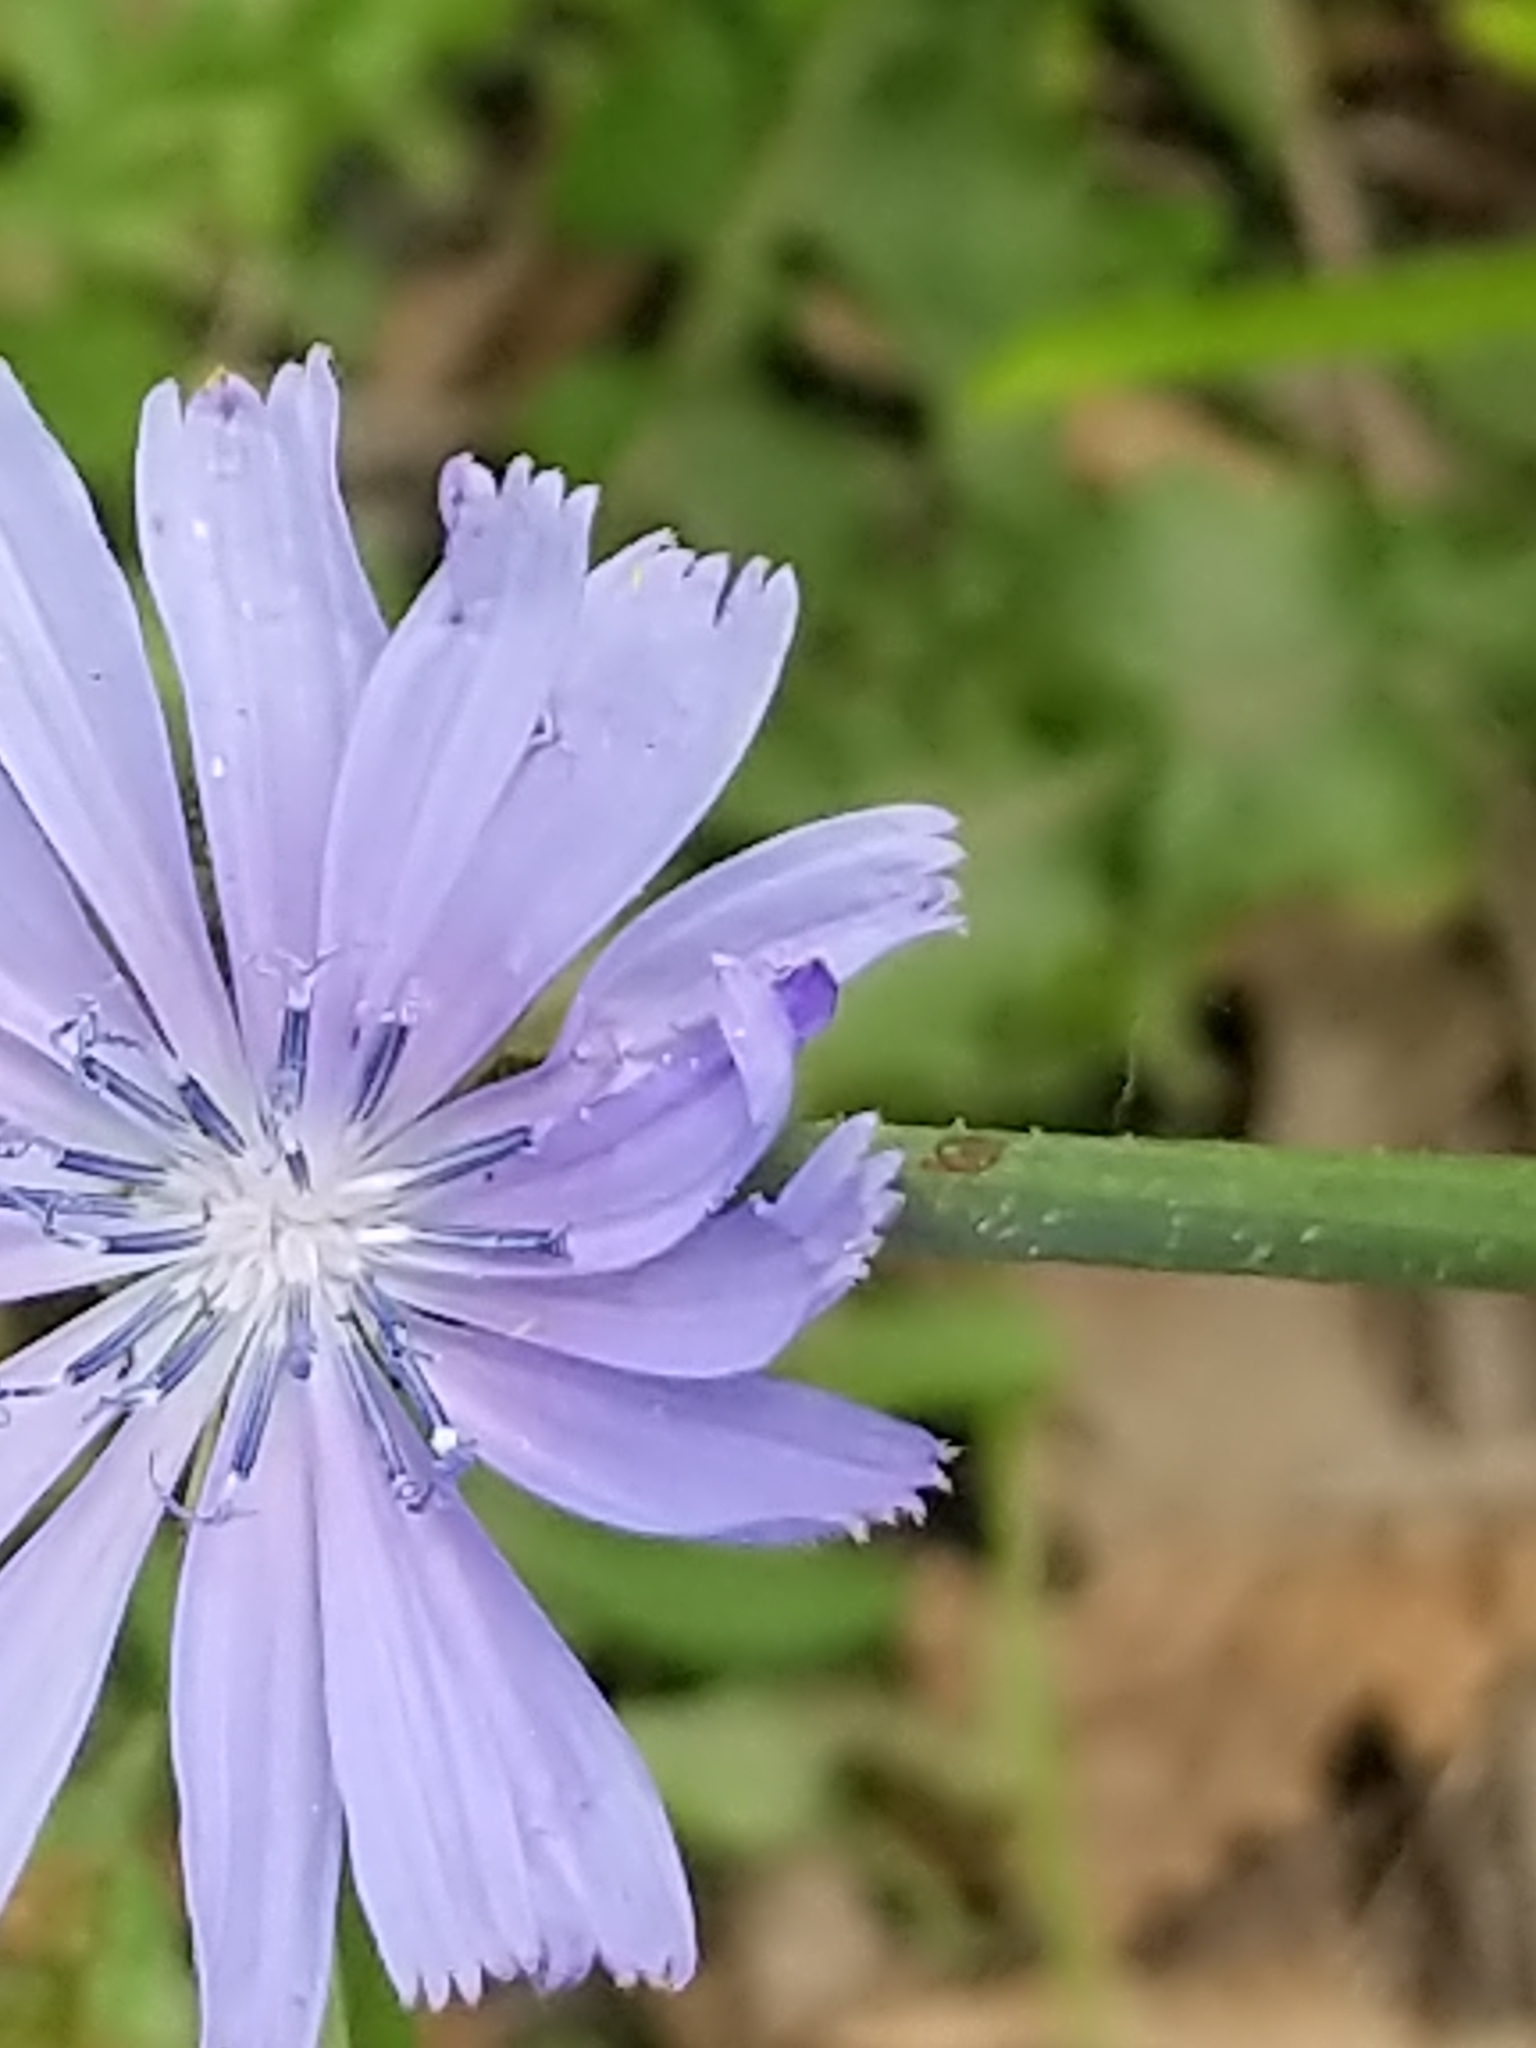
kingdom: Plantae
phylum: Tracheophyta
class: Magnoliopsida
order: Asterales
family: Asteraceae
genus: Cichorium
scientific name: Cichorium intybus
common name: Chicory
